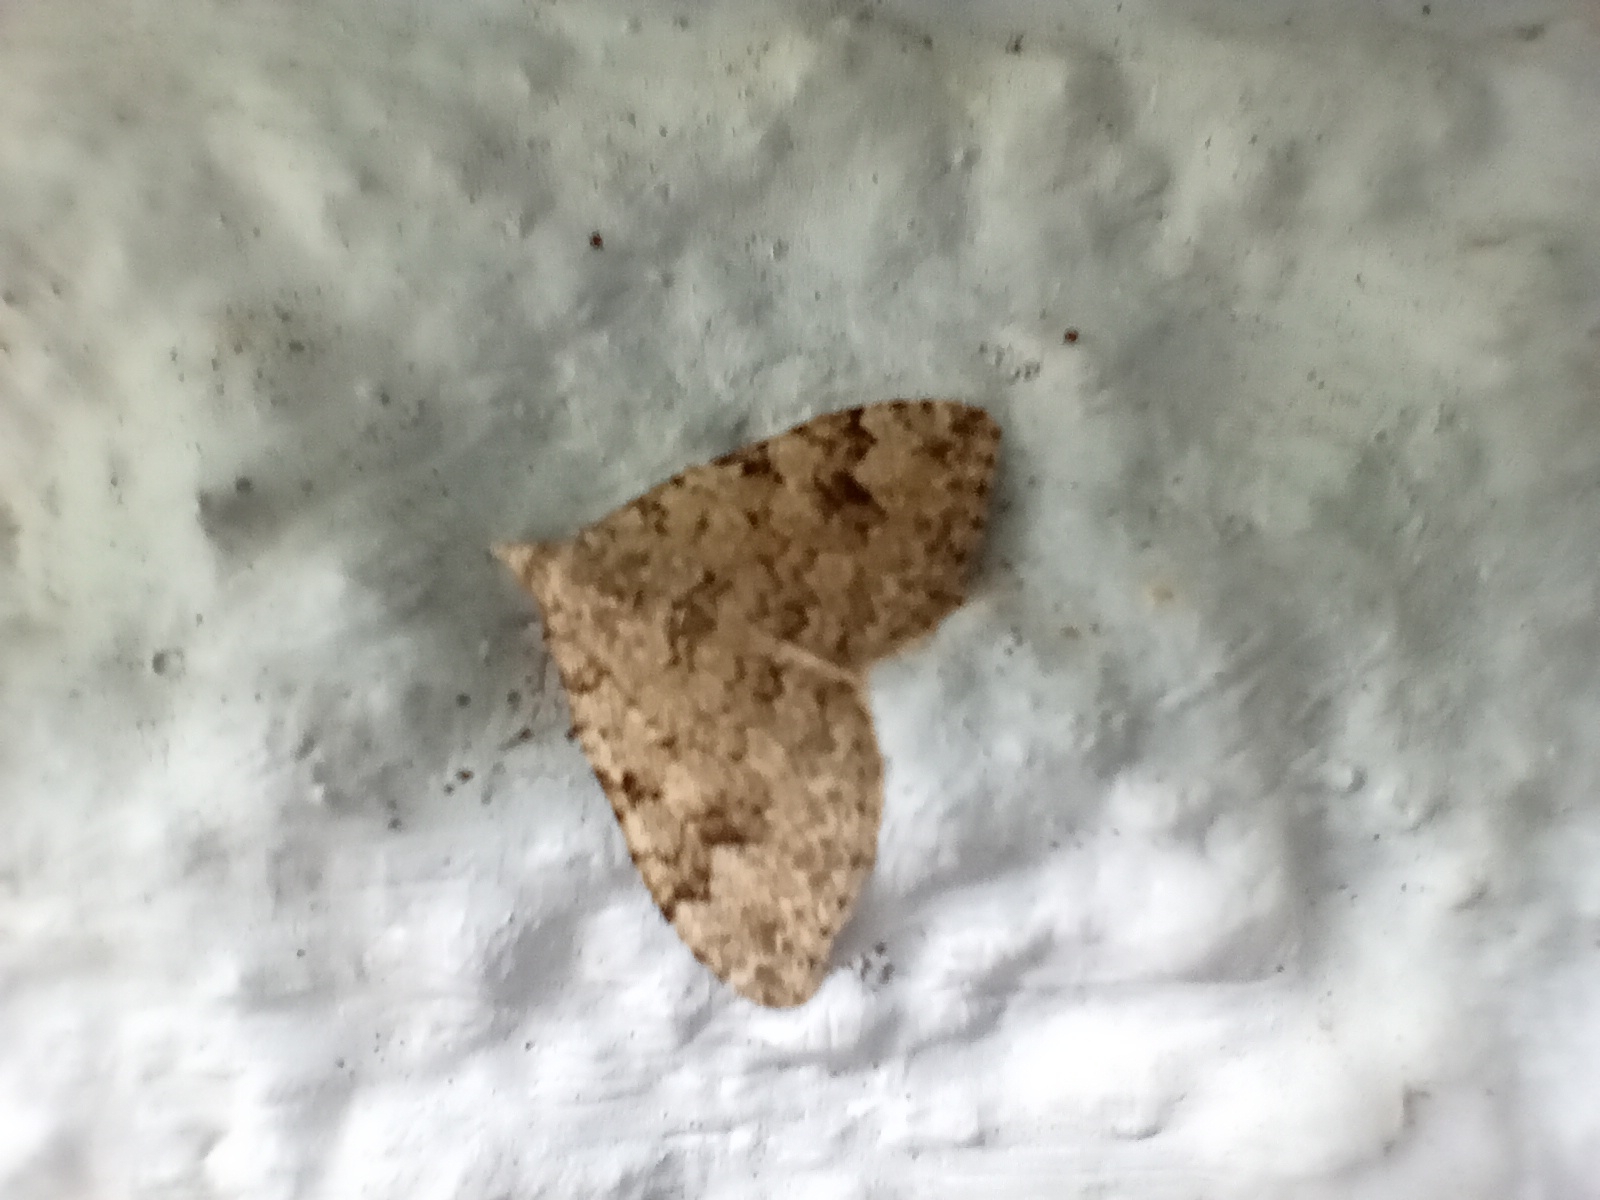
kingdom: Animalia
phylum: Arthropoda
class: Insecta
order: Lepidoptera
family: Geometridae
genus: Helastia
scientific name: Helastia cinerearia
